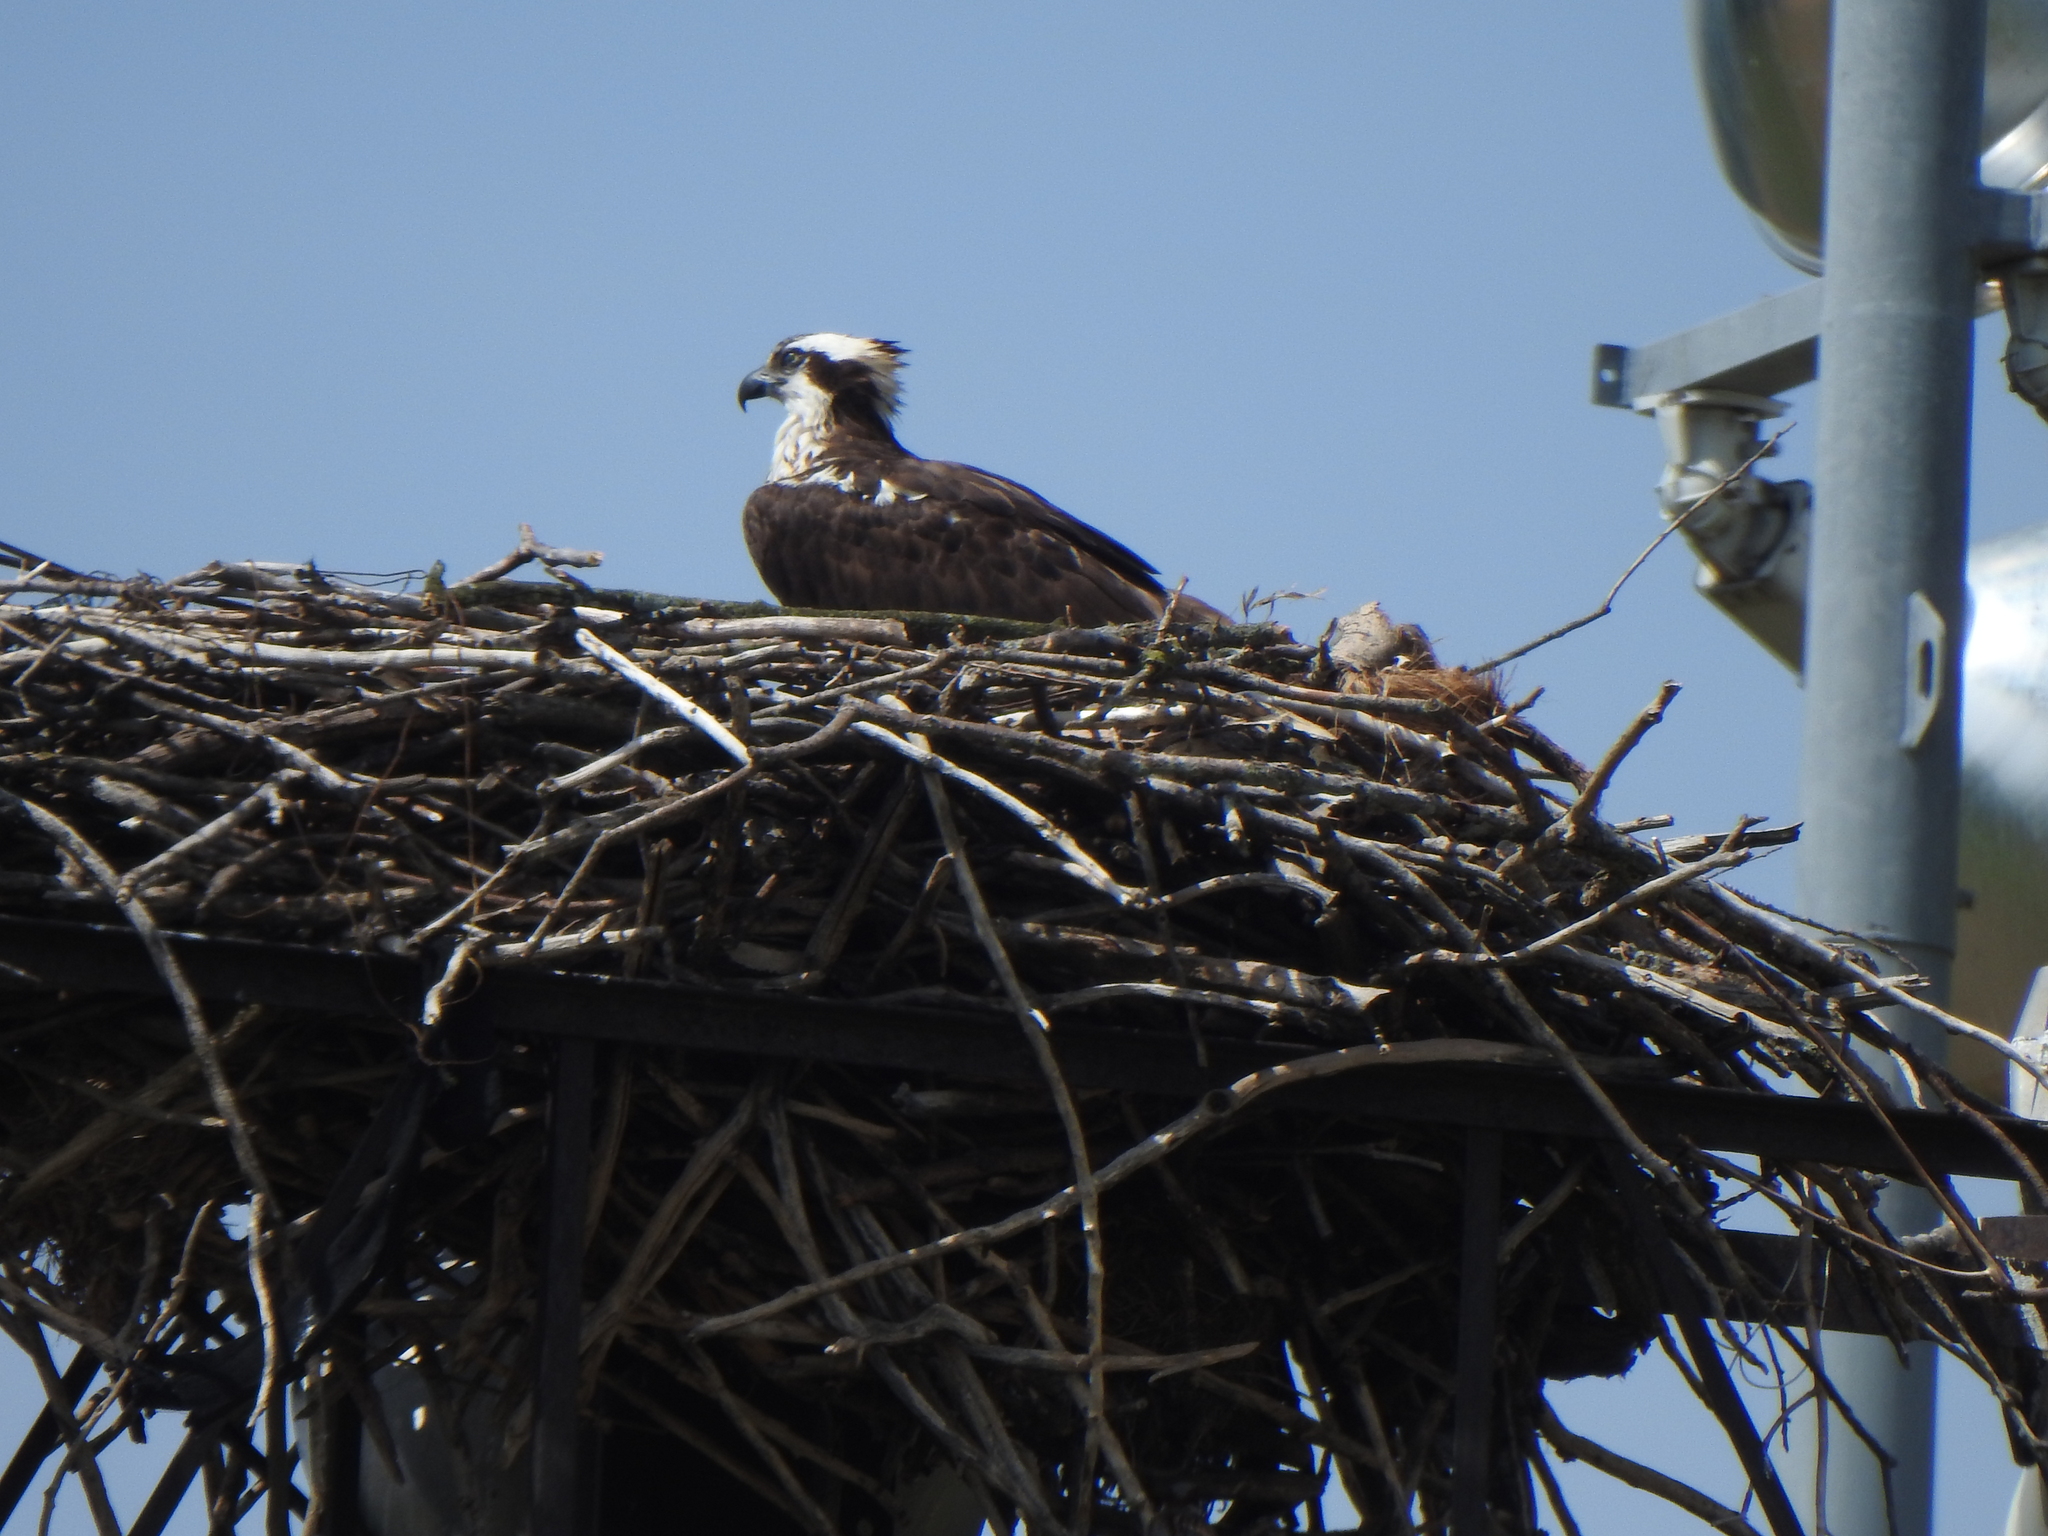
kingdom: Animalia
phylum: Chordata
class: Aves
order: Accipitriformes
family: Pandionidae
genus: Pandion
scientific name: Pandion haliaetus
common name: Osprey
